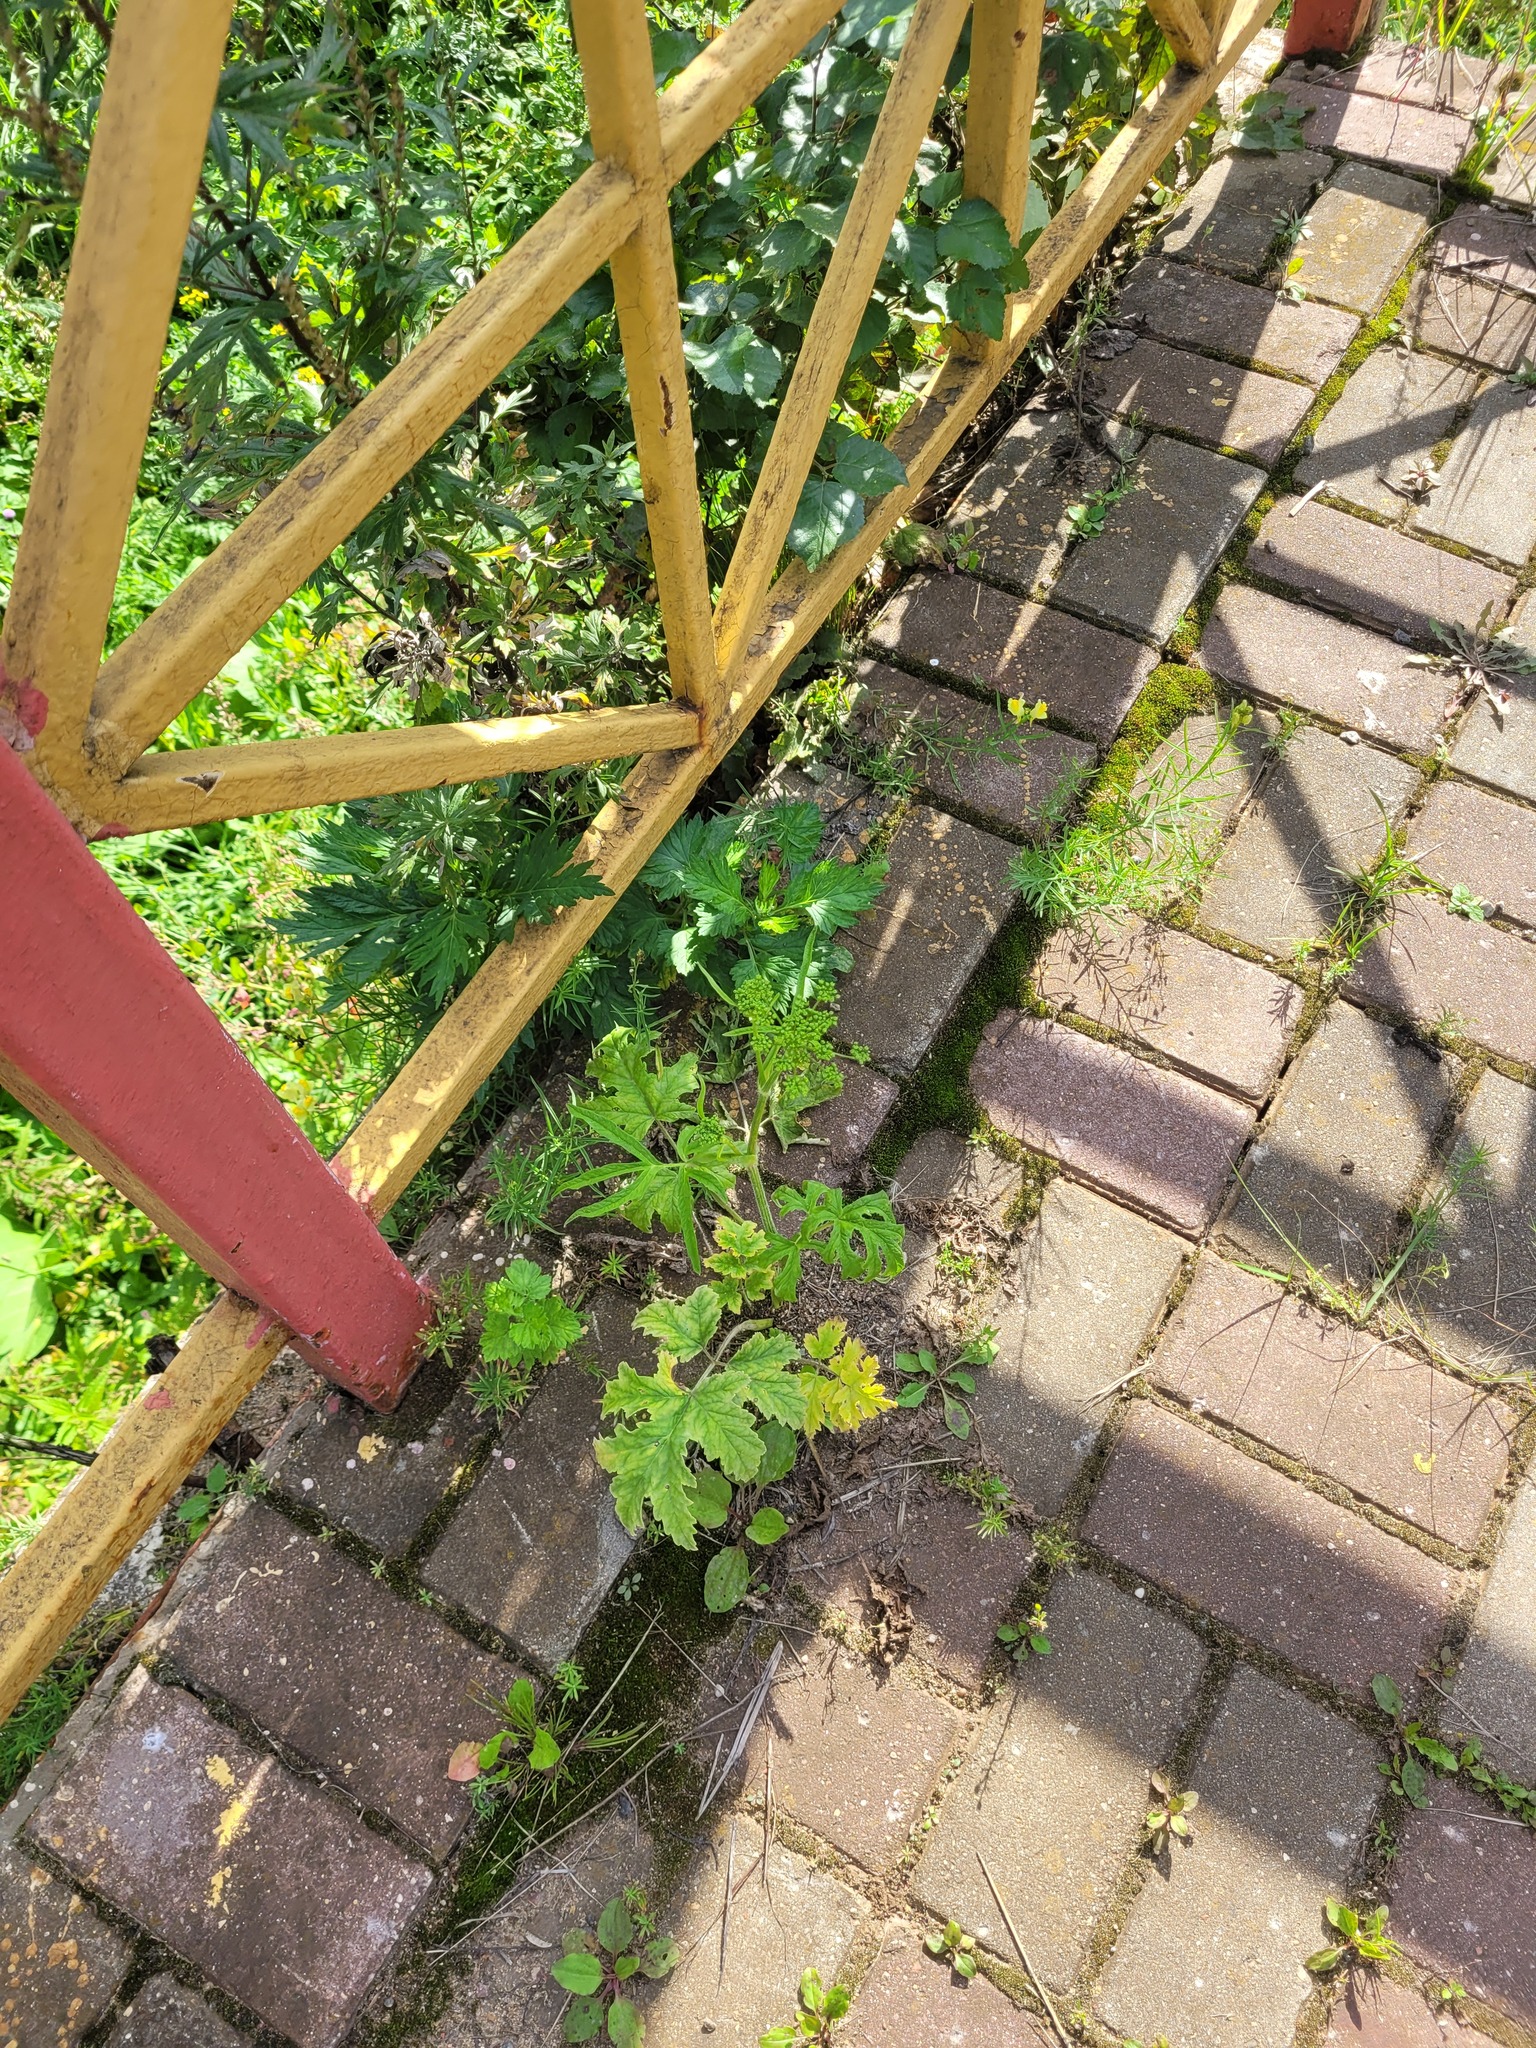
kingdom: Plantae
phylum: Tracheophyta
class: Magnoliopsida
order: Apiales
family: Apiaceae
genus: Heracleum
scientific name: Heracleum sphondylium
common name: Hogweed
